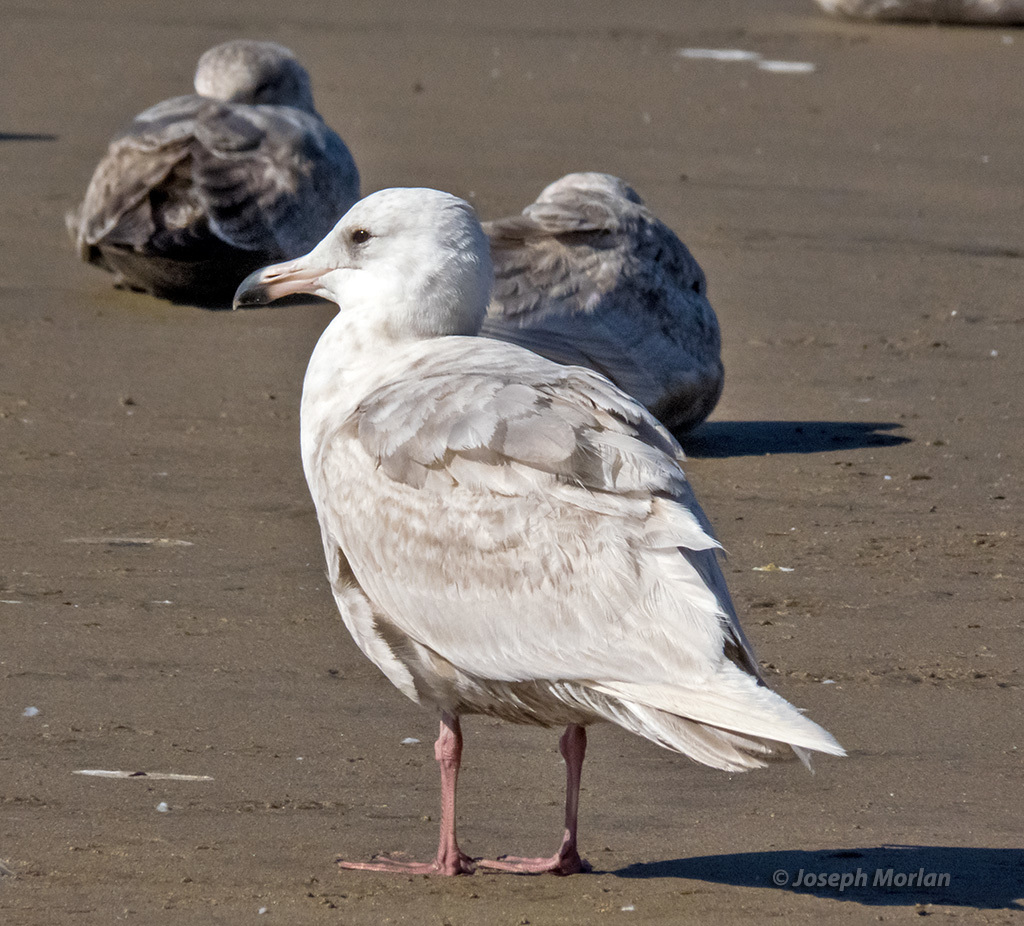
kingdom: Animalia
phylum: Chordata
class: Aves
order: Charadriiformes
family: Laridae
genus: Larus
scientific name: Larus
